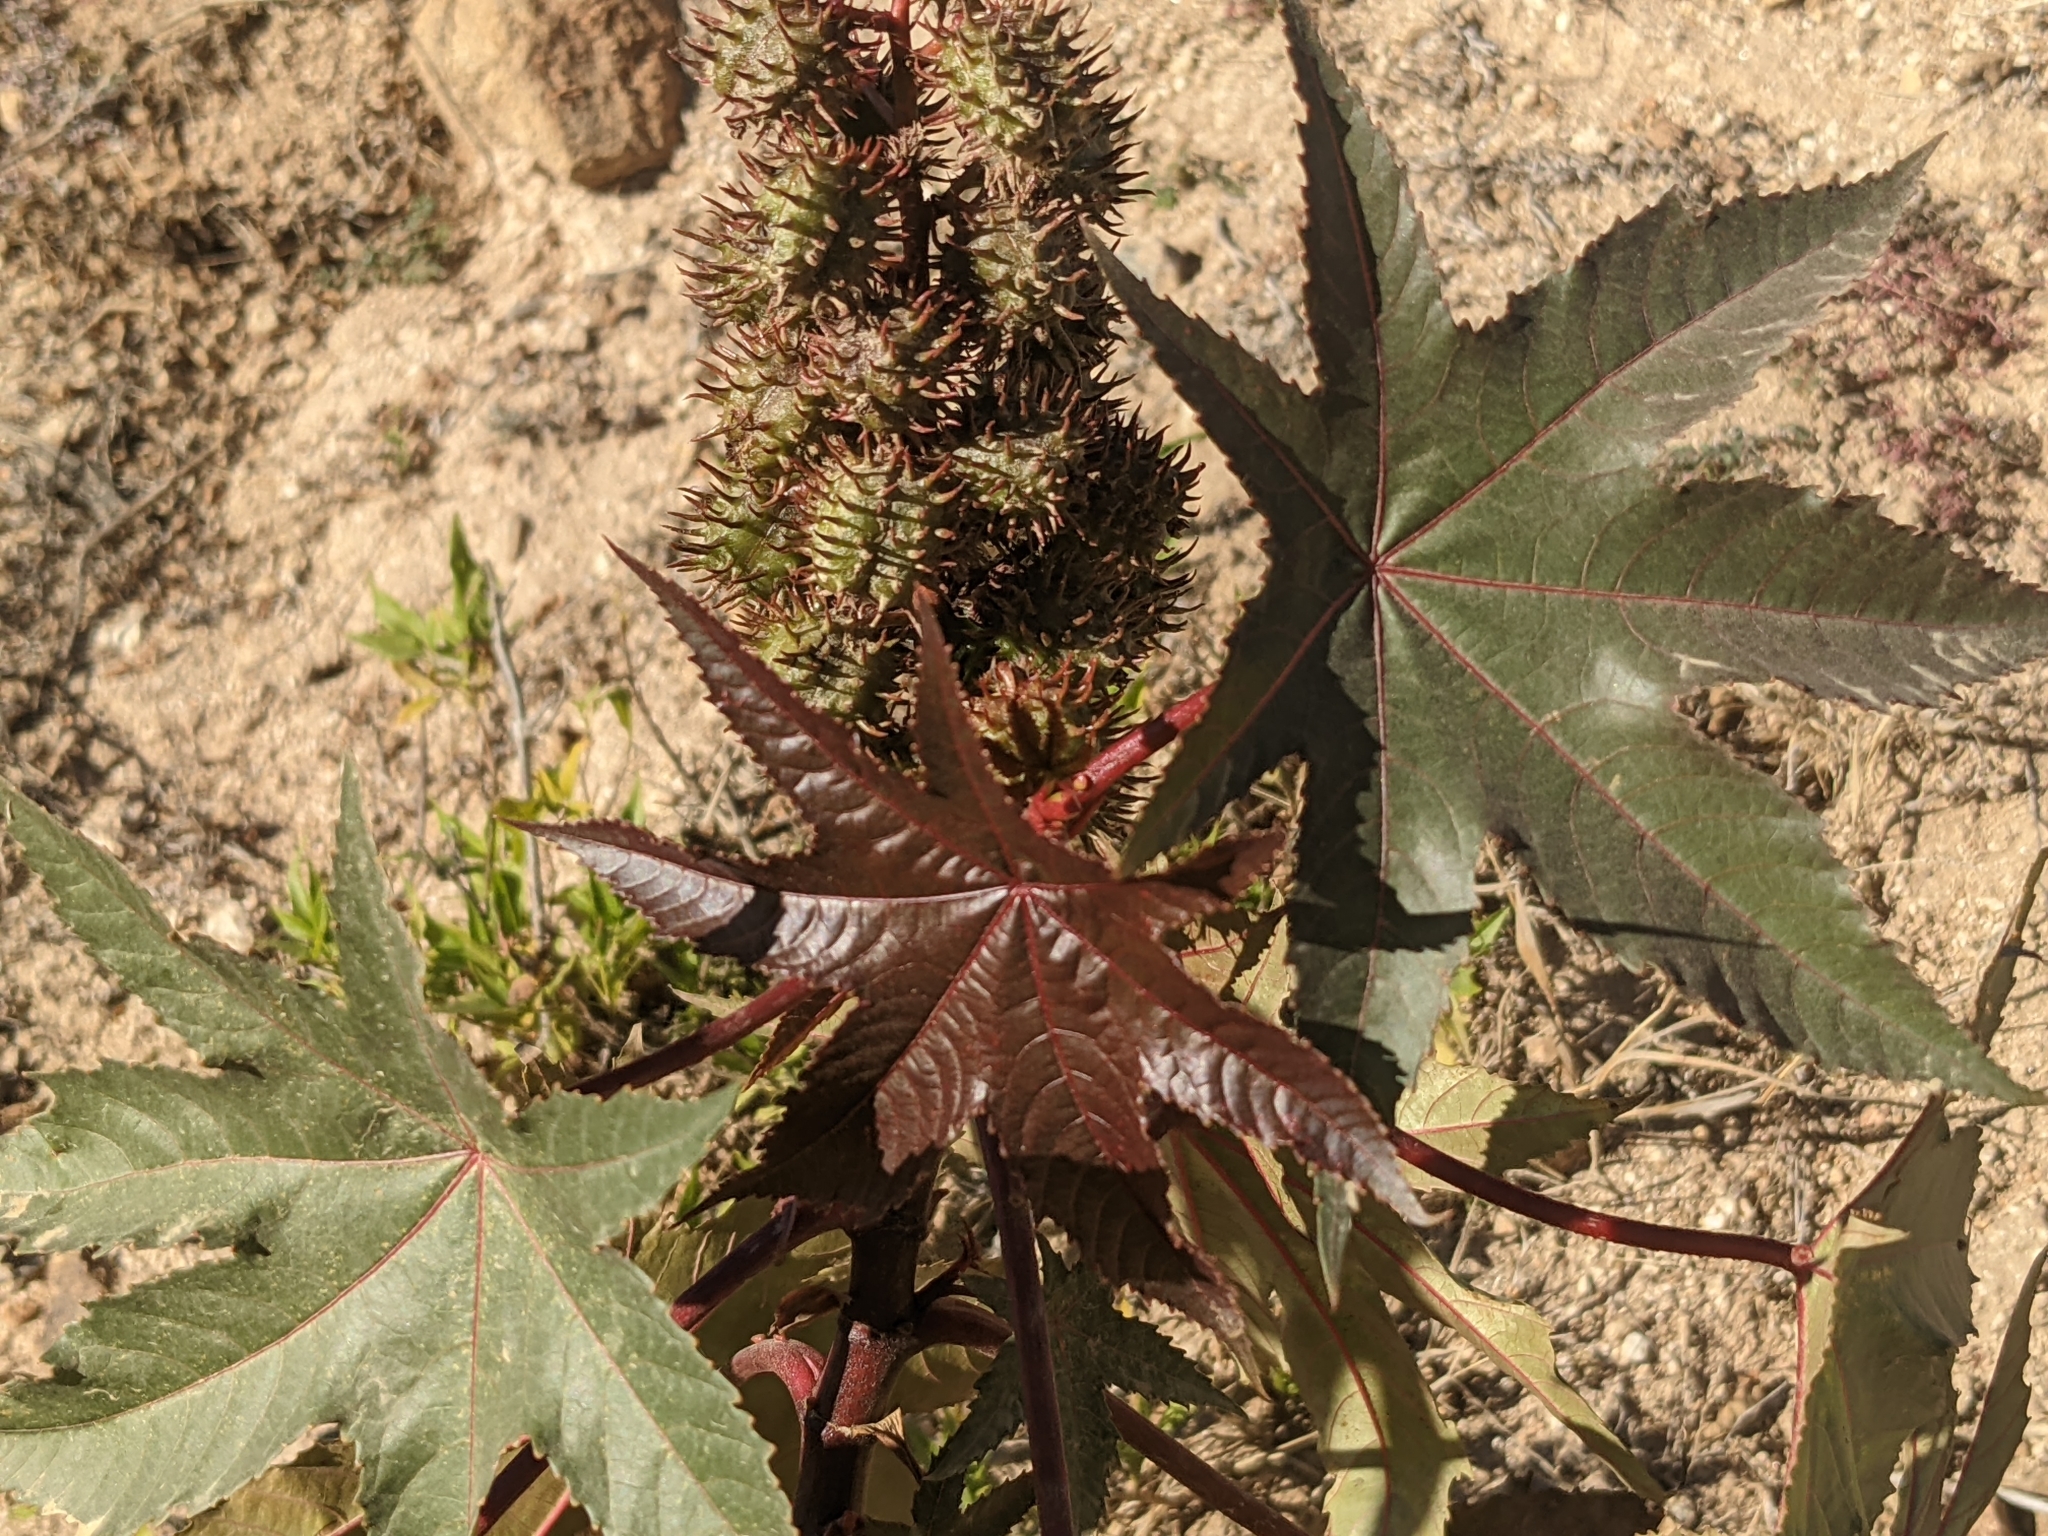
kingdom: Plantae
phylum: Tracheophyta
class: Magnoliopsida
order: Malpighiales
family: Euphorbiaceae
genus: Ricinus
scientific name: Ricinus communis
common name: Castor-oil-plant
